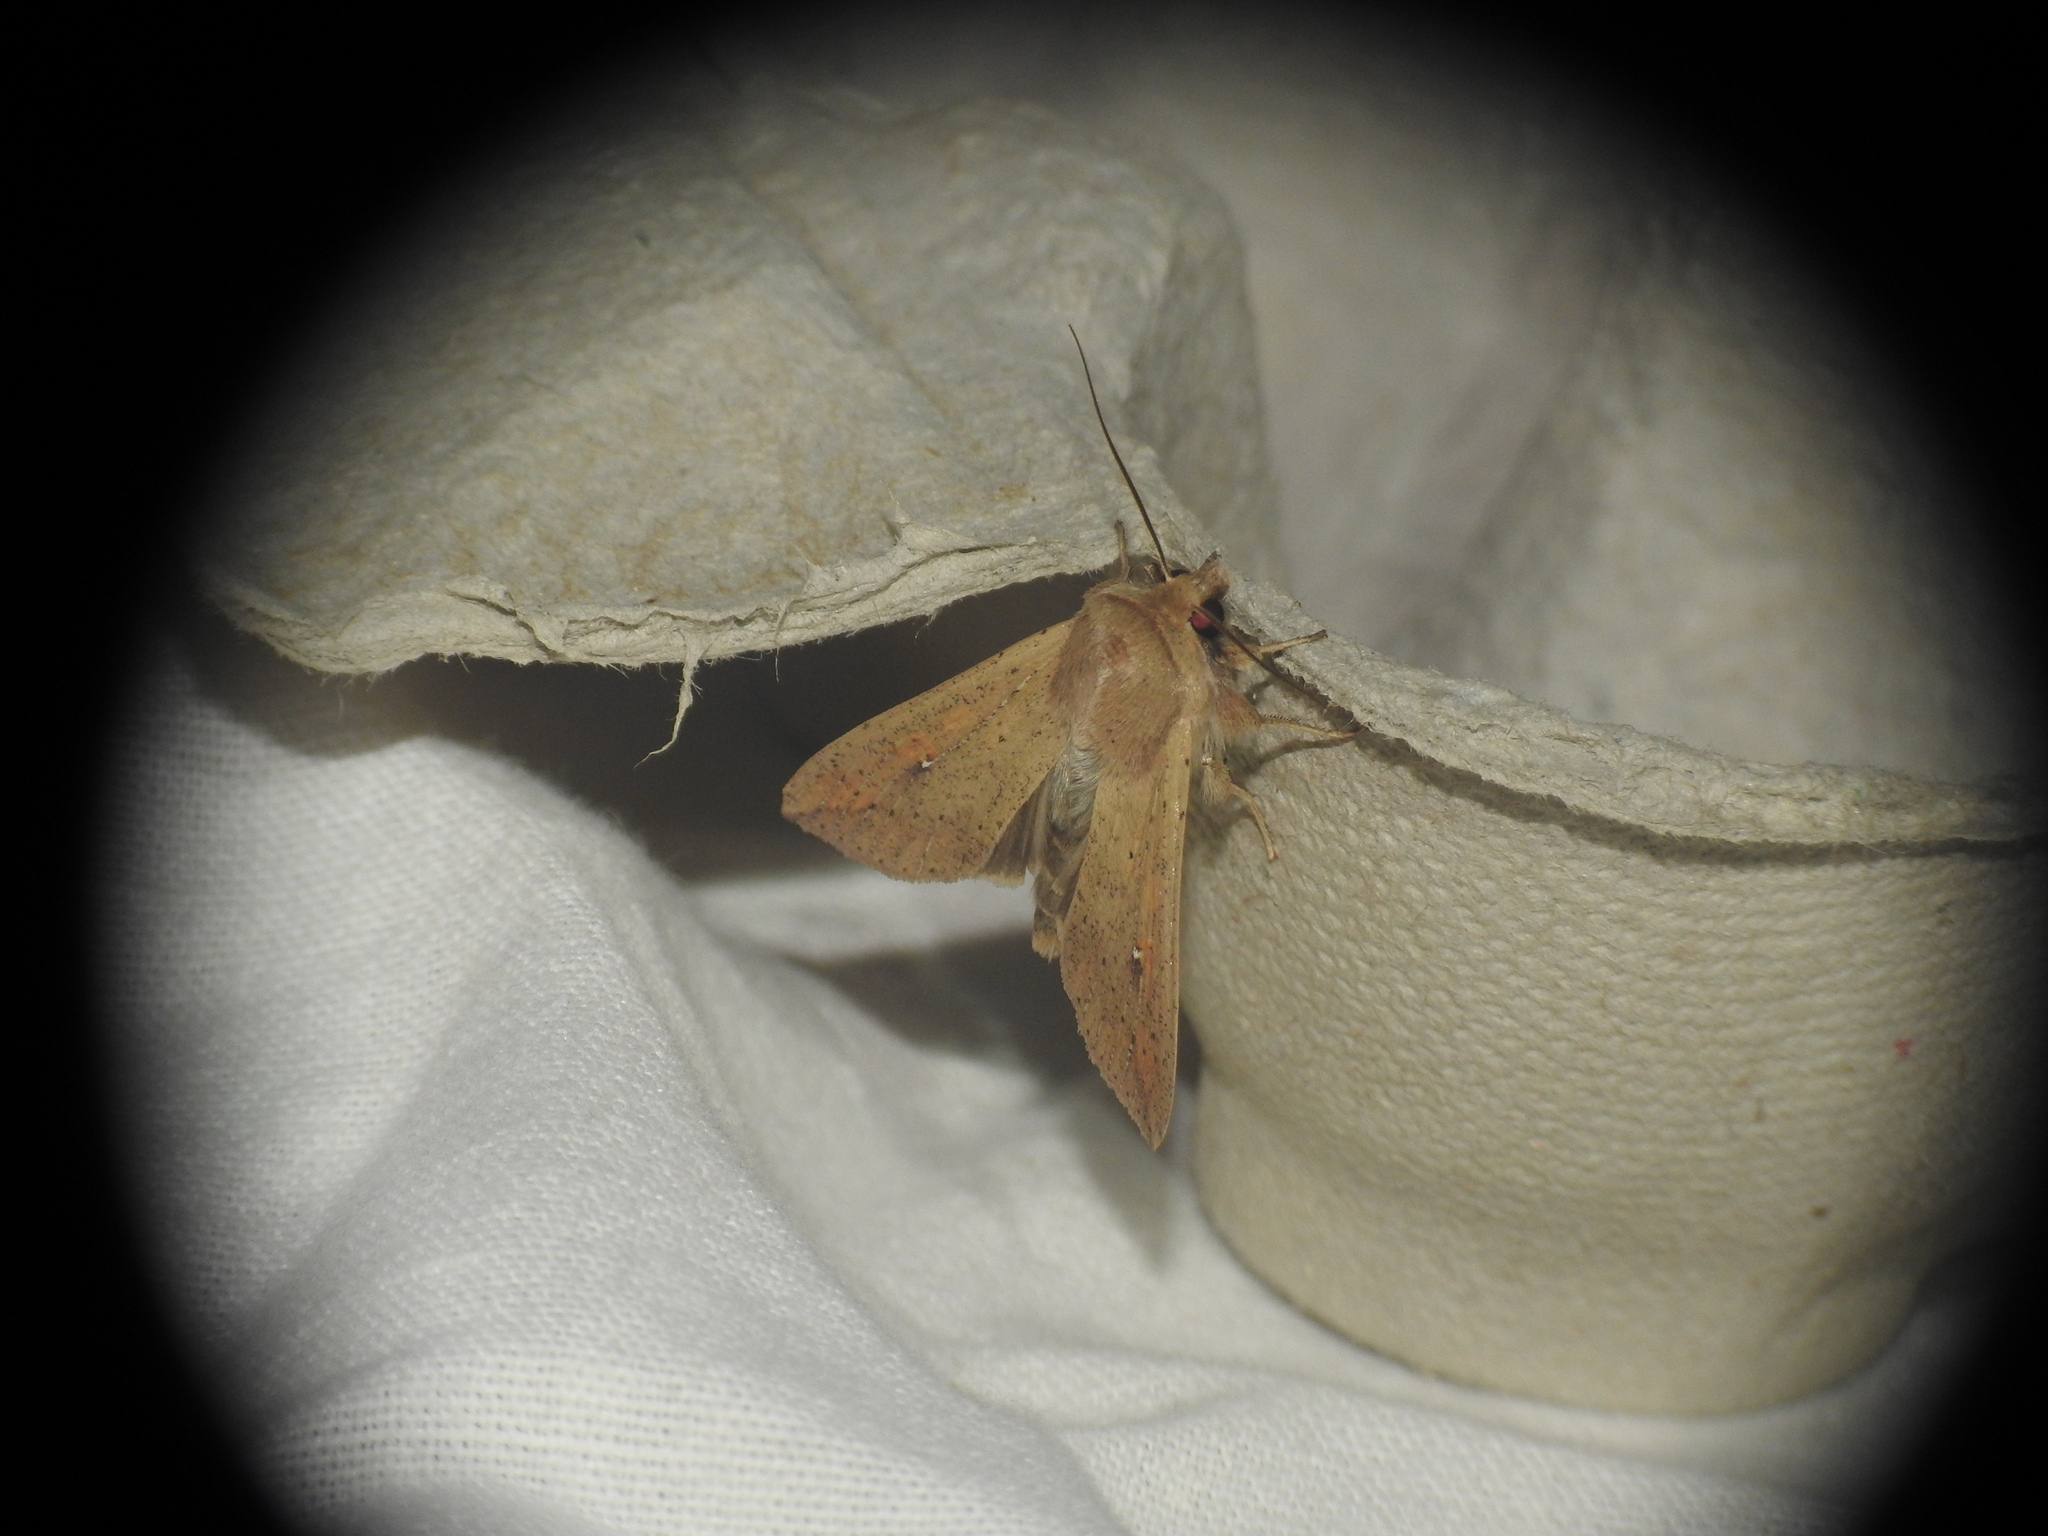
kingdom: Animalia
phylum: Arthropoda
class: Insecta
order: Lepidoptera
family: Noctuidae
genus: Mythimna
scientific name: Mythimna unipuncta
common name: White-speck
